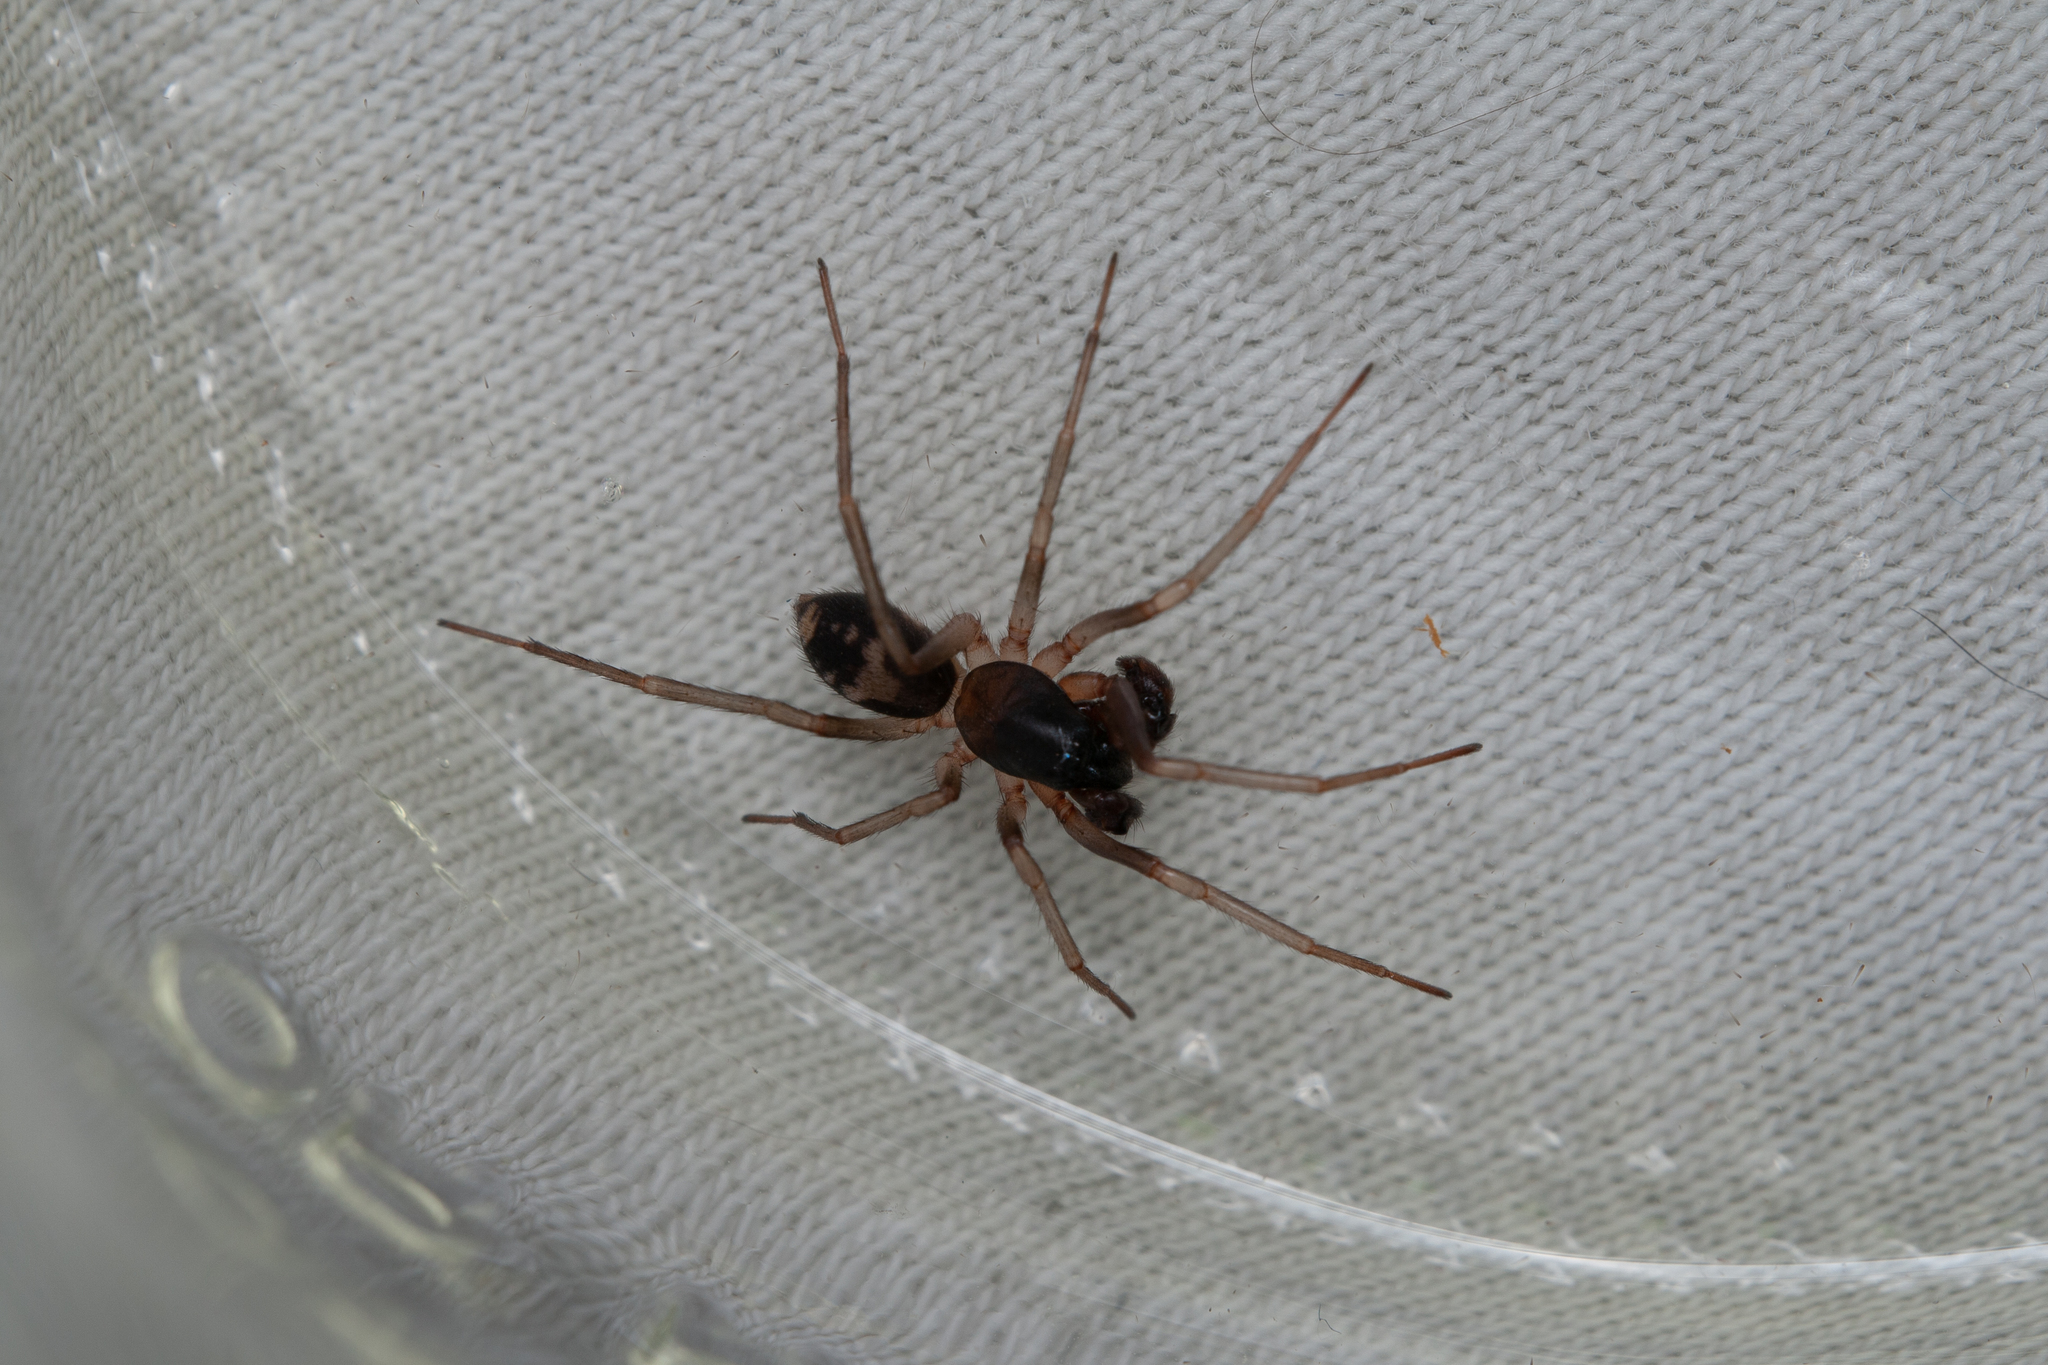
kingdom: Animalia
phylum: Arthropoda
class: Arachnida
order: Araneae
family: Corinnidae
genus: Falconina
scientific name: Falconina gracilis
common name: Antmimic spider
